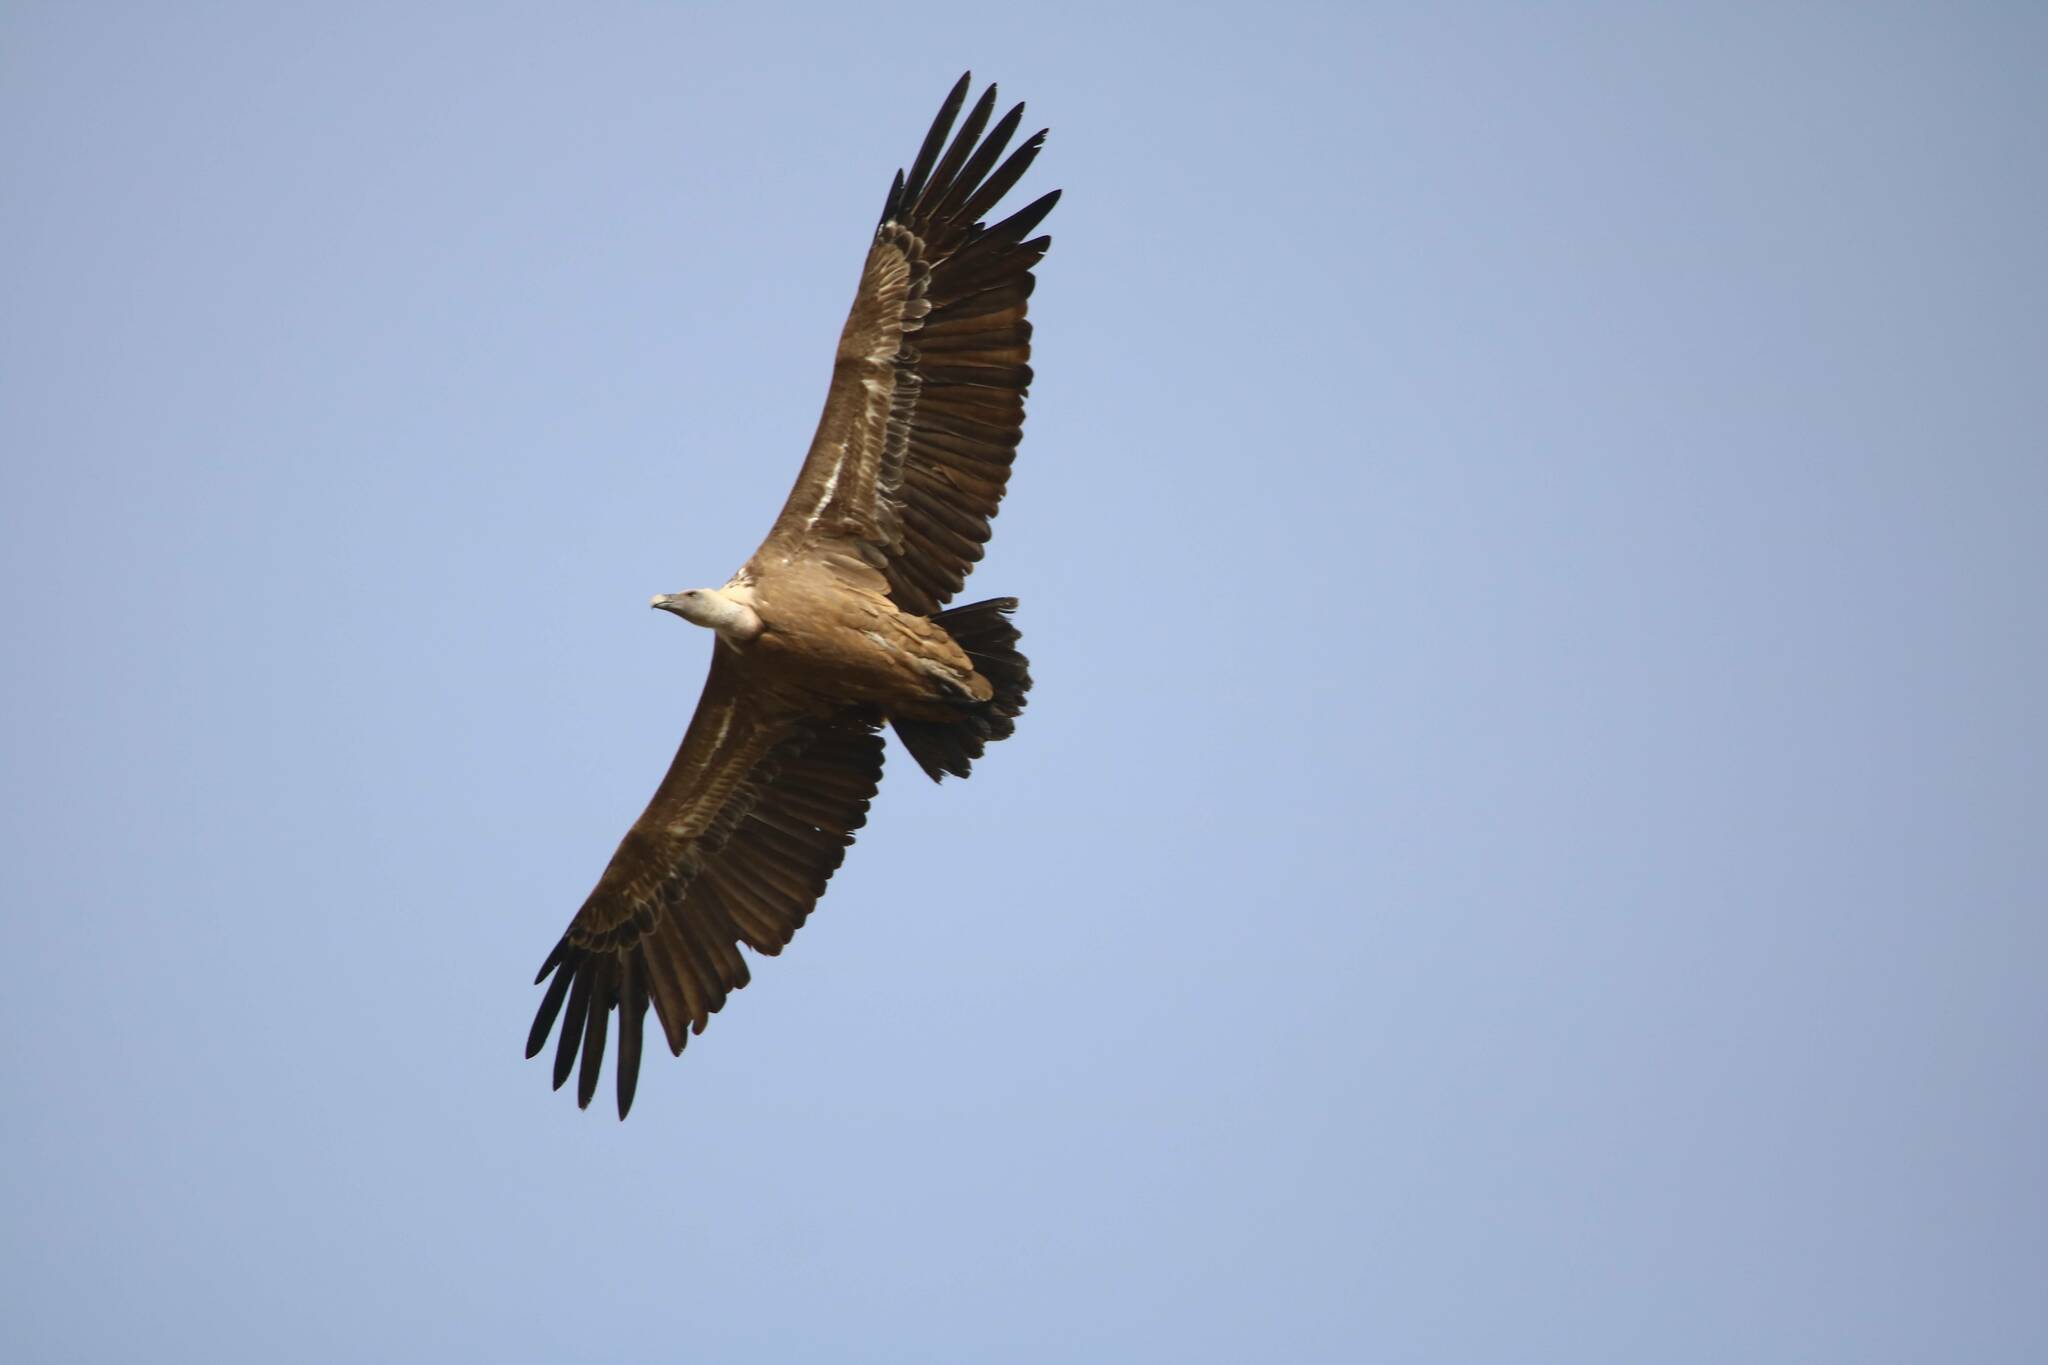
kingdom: Animalia
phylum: Chordata
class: Aves
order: Accipitriformes
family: Accipitridae
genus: Gyps
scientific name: Gyps fulvus
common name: Griffon vulture
